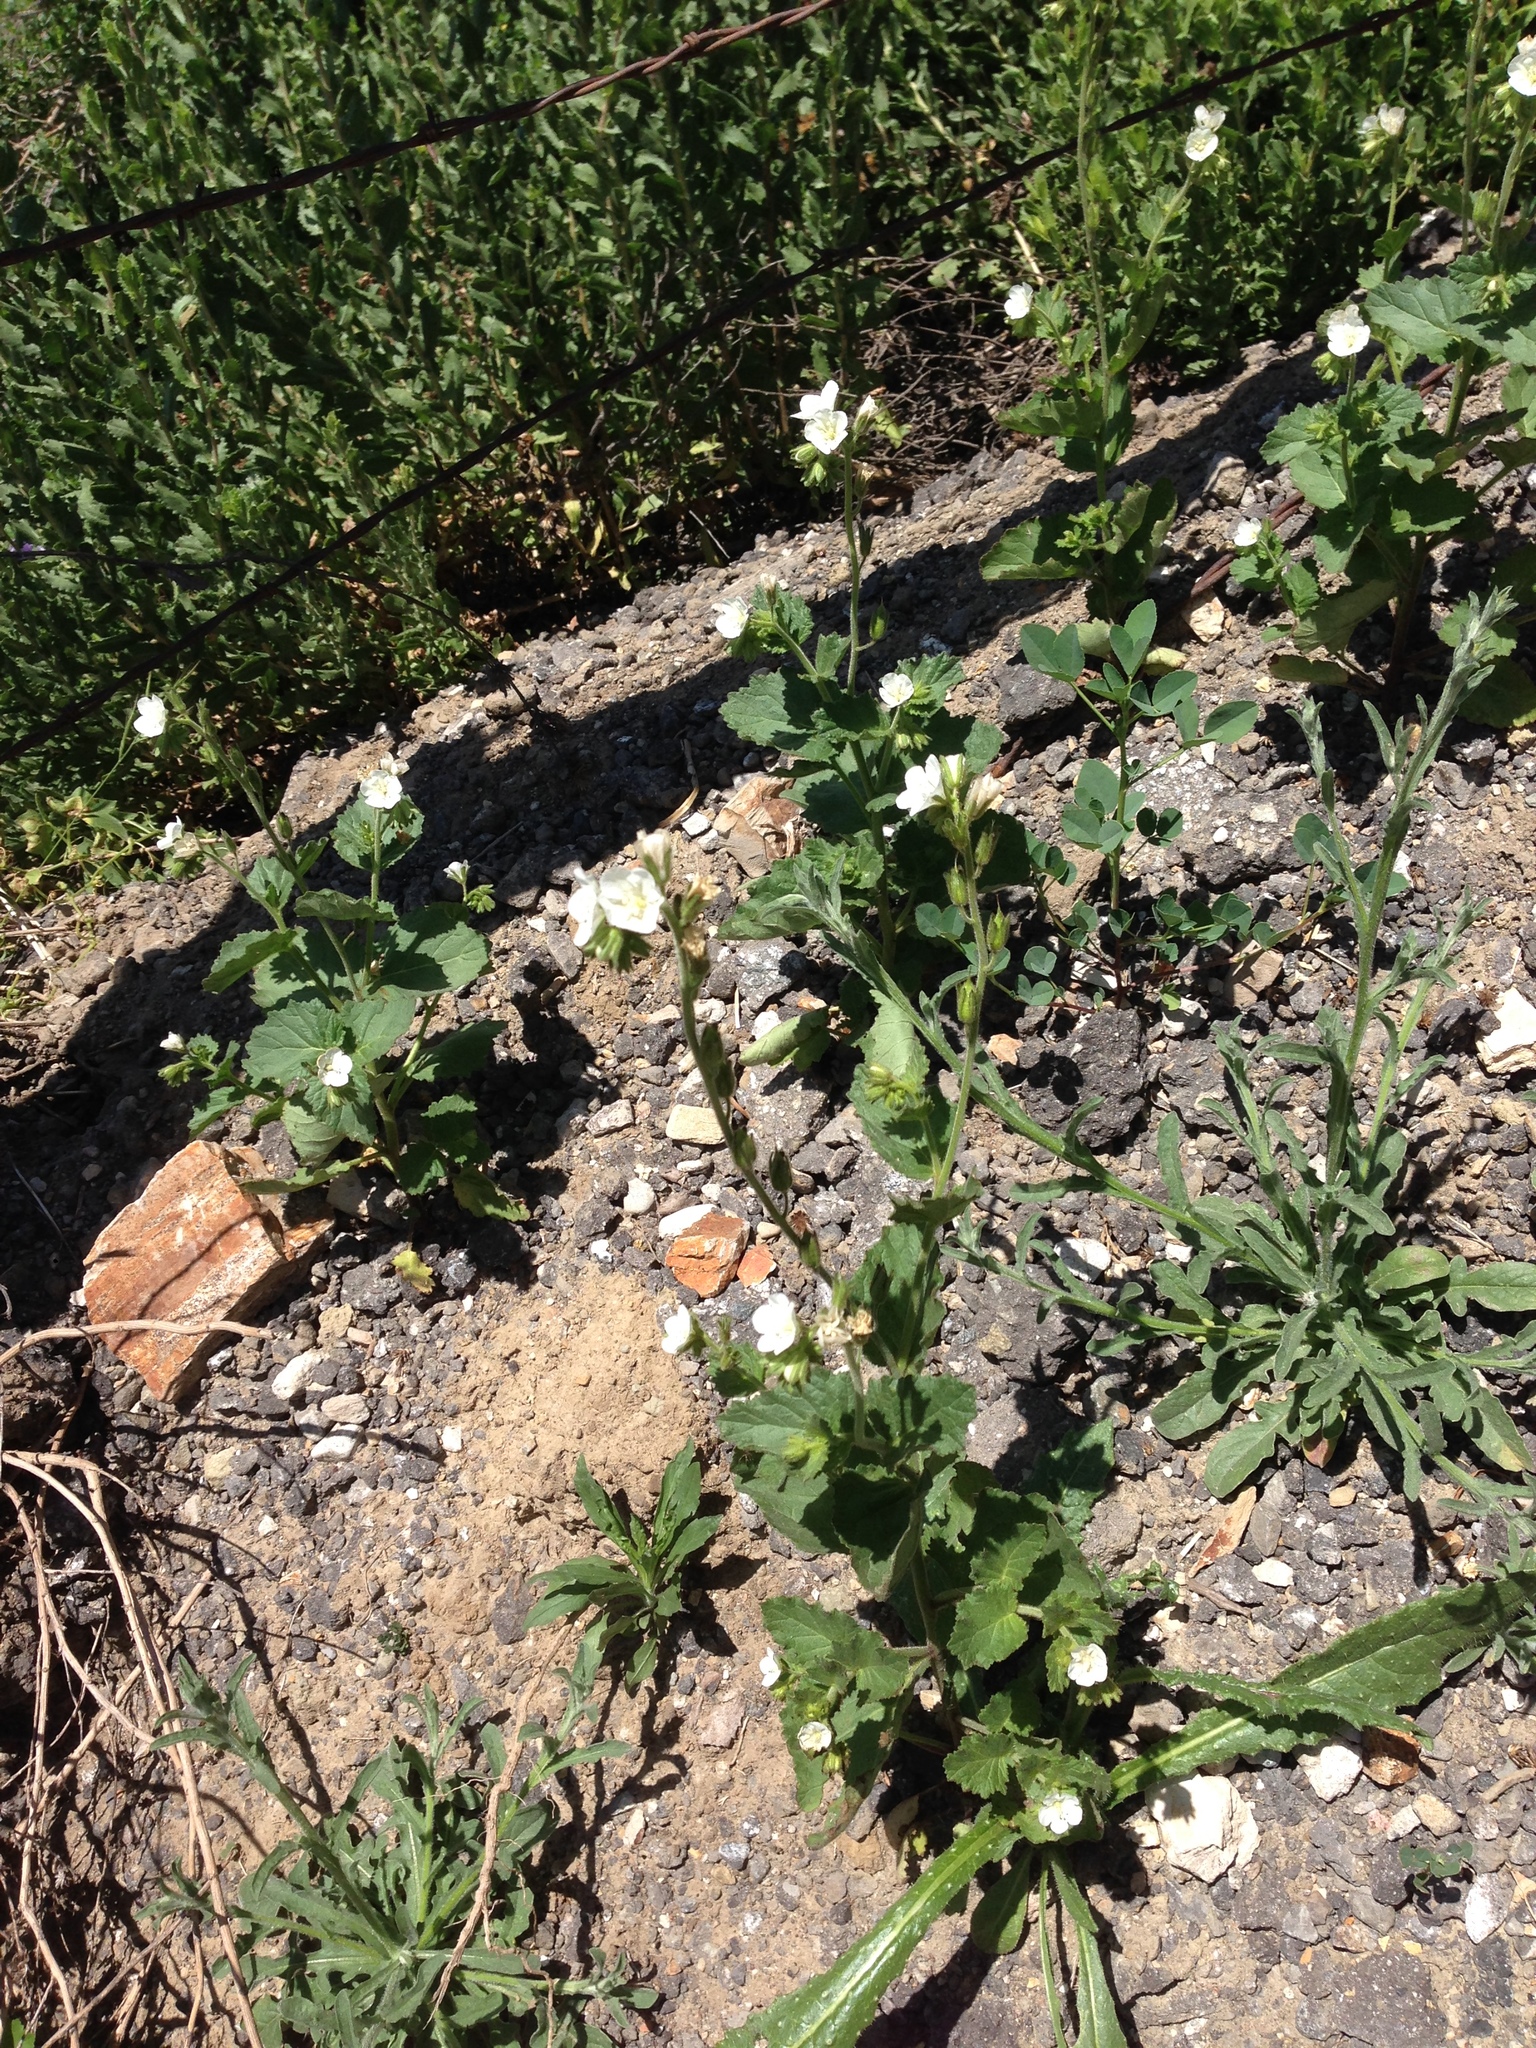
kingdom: Plantae
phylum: Tracheophyta
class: Magnoliopsida
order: Boraginales
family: Hydrophyllaceae
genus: Phacelia
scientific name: Phacelia viscida
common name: Sticky phacelia
